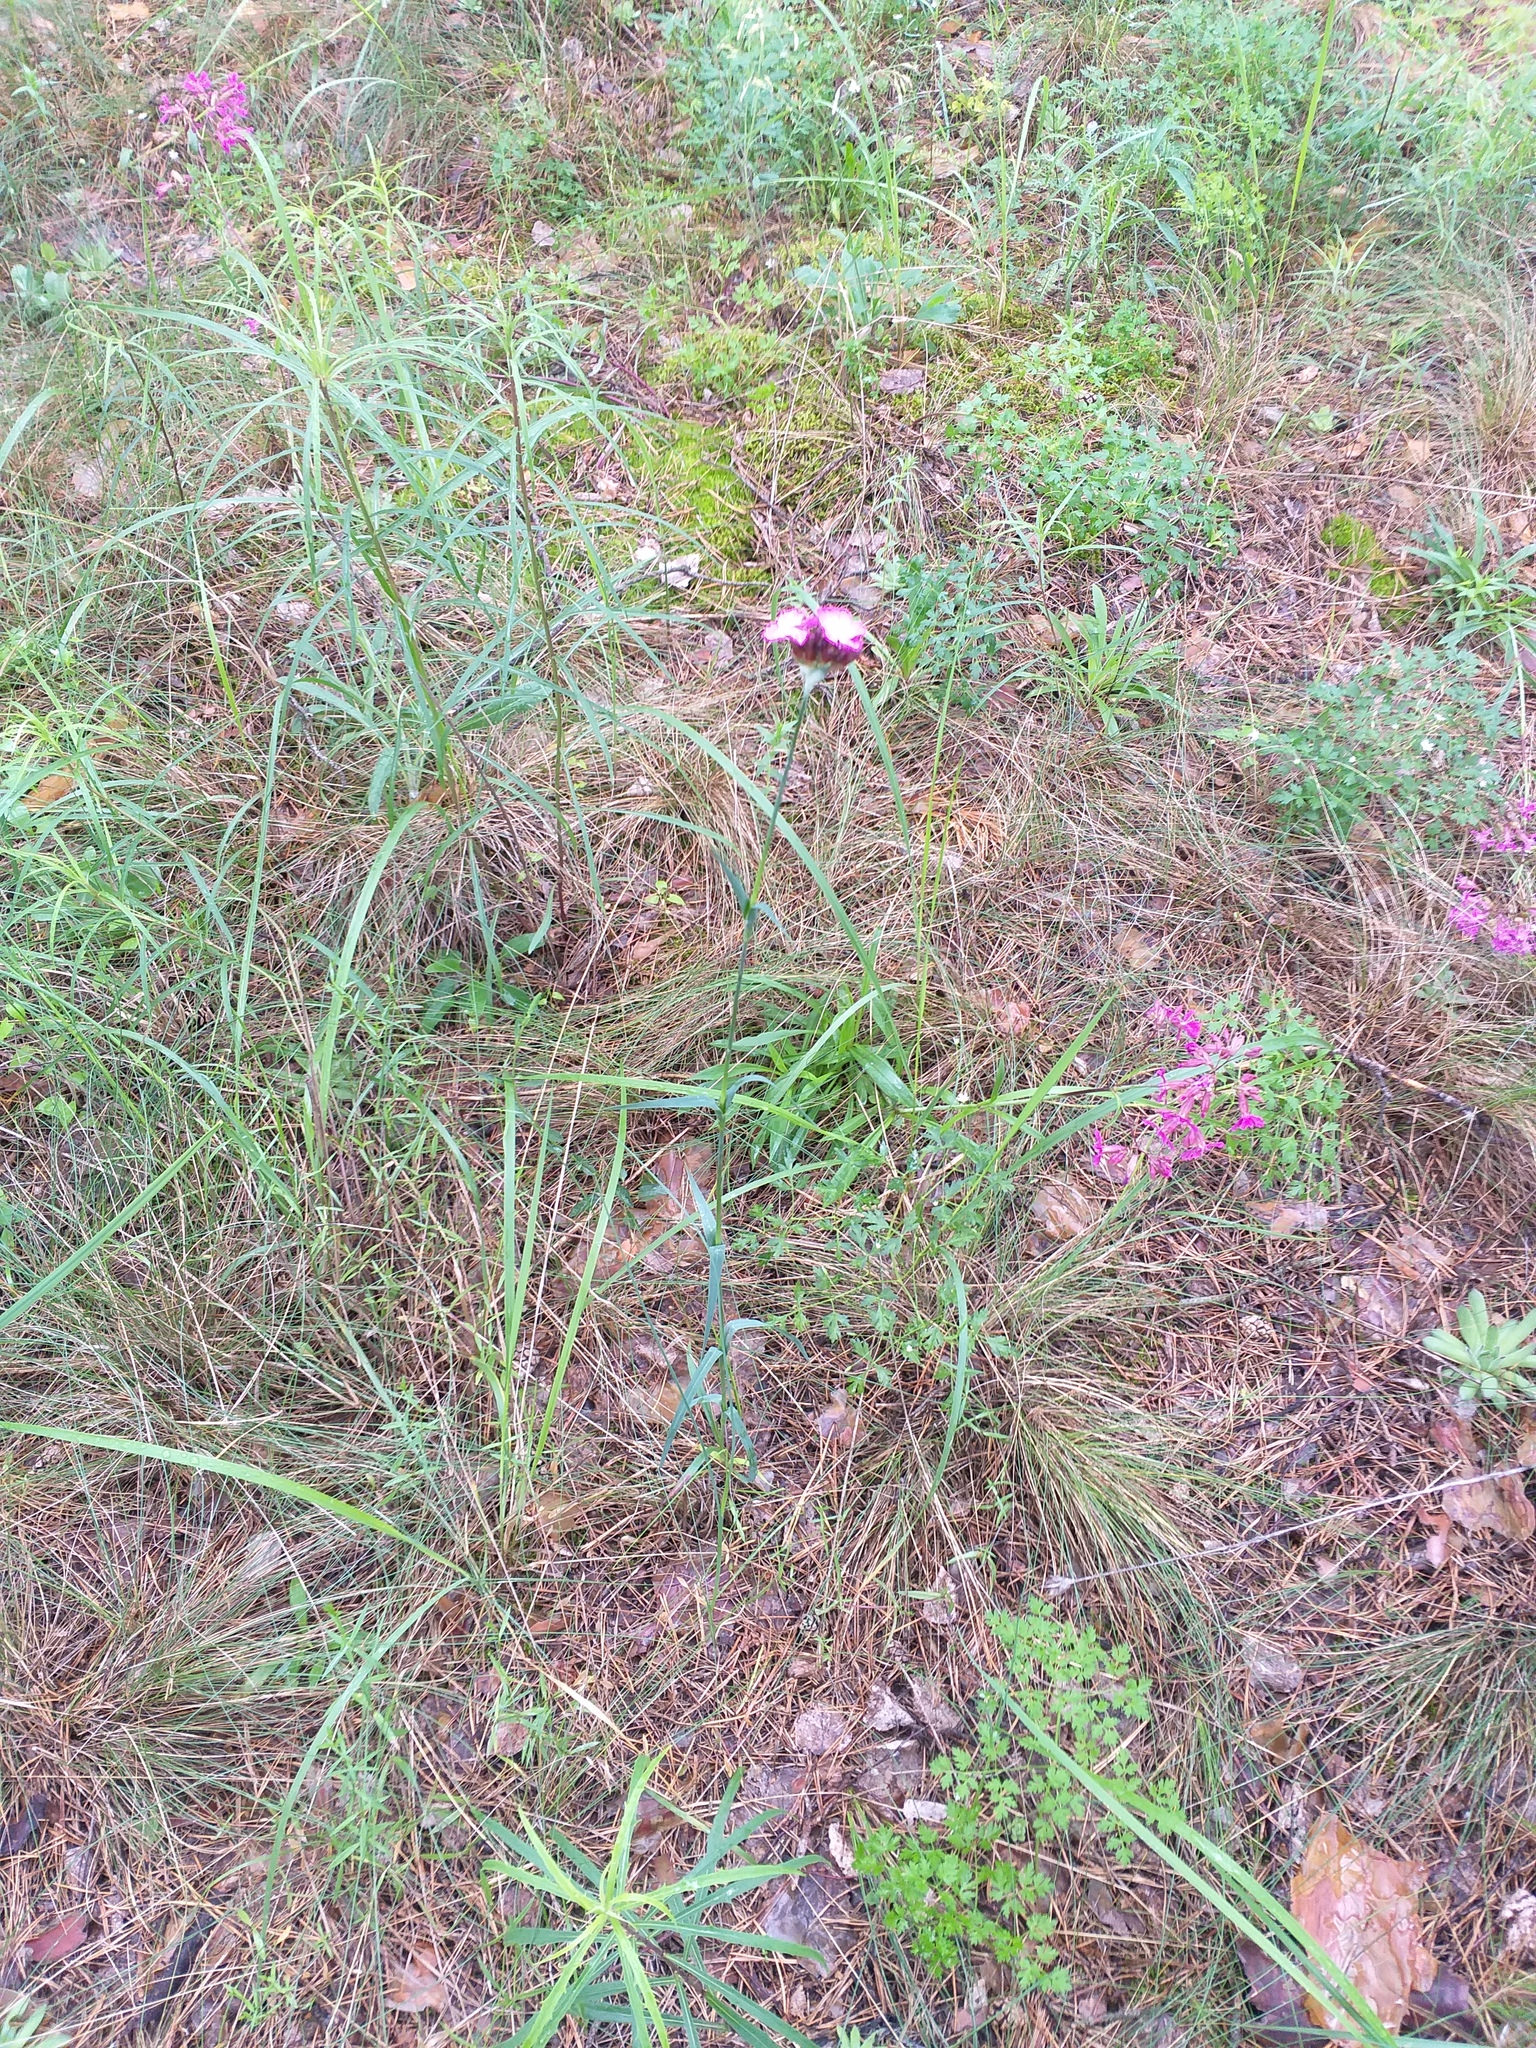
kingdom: Plantae
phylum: Tracheophyta
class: Magnoliopsida
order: Caryophyllales
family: Caryophyllaceae
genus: Dianthus
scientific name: Dianthus capitatus
